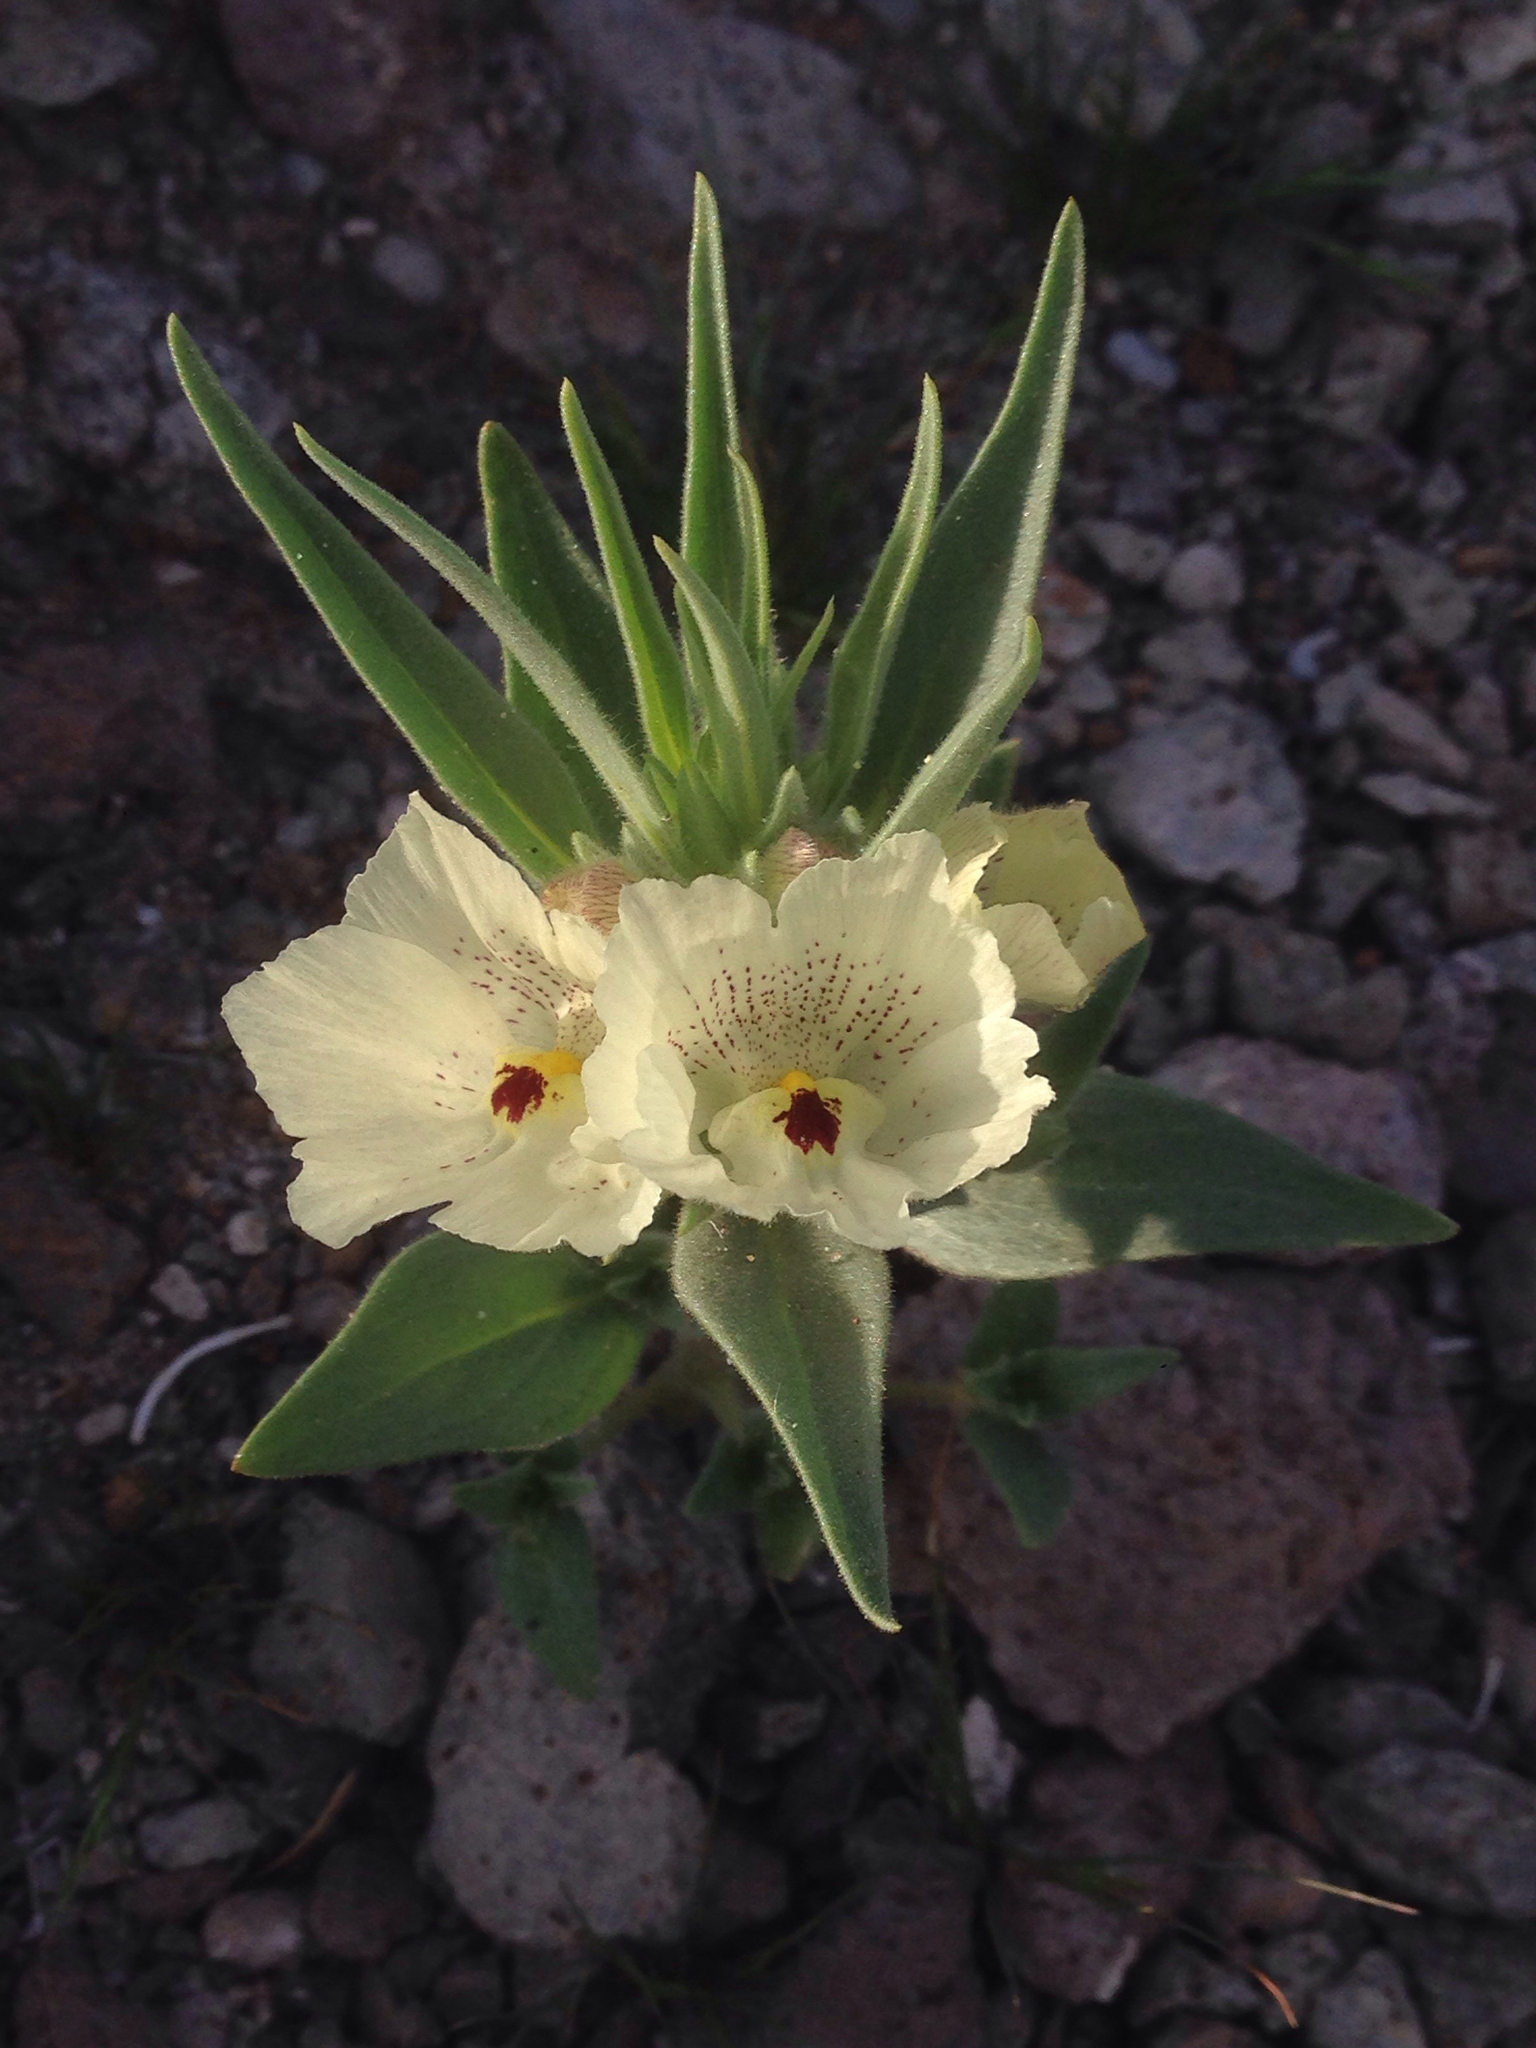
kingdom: Plantae
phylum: Tracheophyta
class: Magnoliopsida
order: Lamiales
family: Plantaginaceae
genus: Mohavea
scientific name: Mohavea confertiflora
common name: Ghost flower
